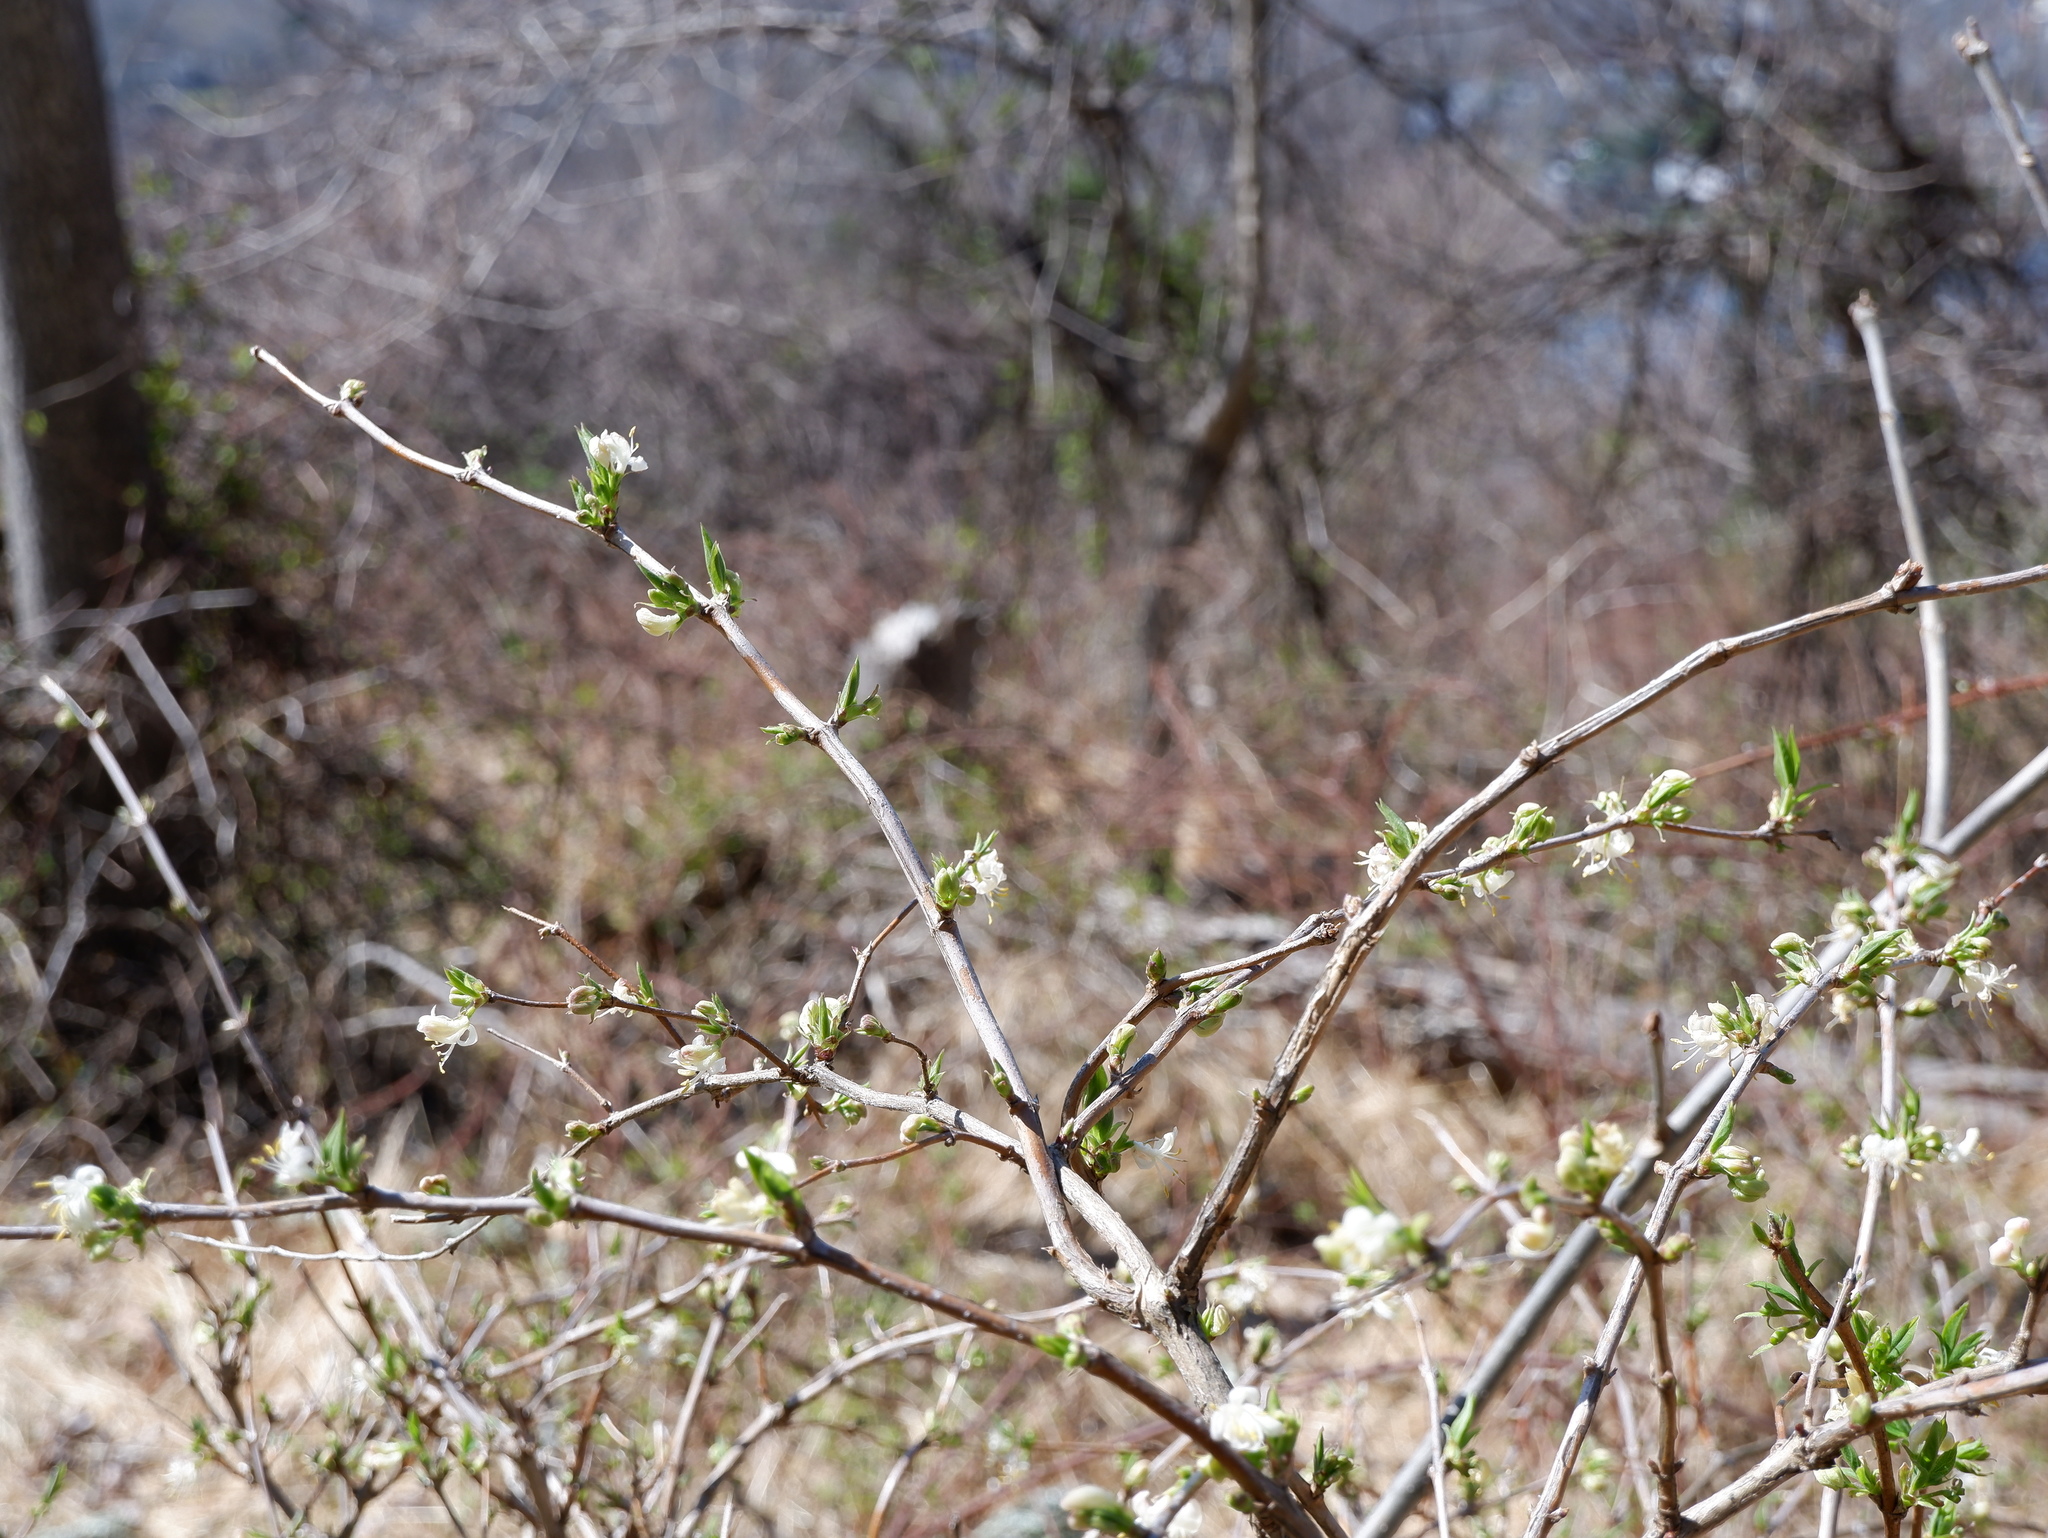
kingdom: Plantae
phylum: Tracheophyta
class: Magnoliopsida
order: Dipsacales
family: Caprifoliaceae
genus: Lonicera
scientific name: Lonicera fragrantissima
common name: Fragrant honeysuckle
